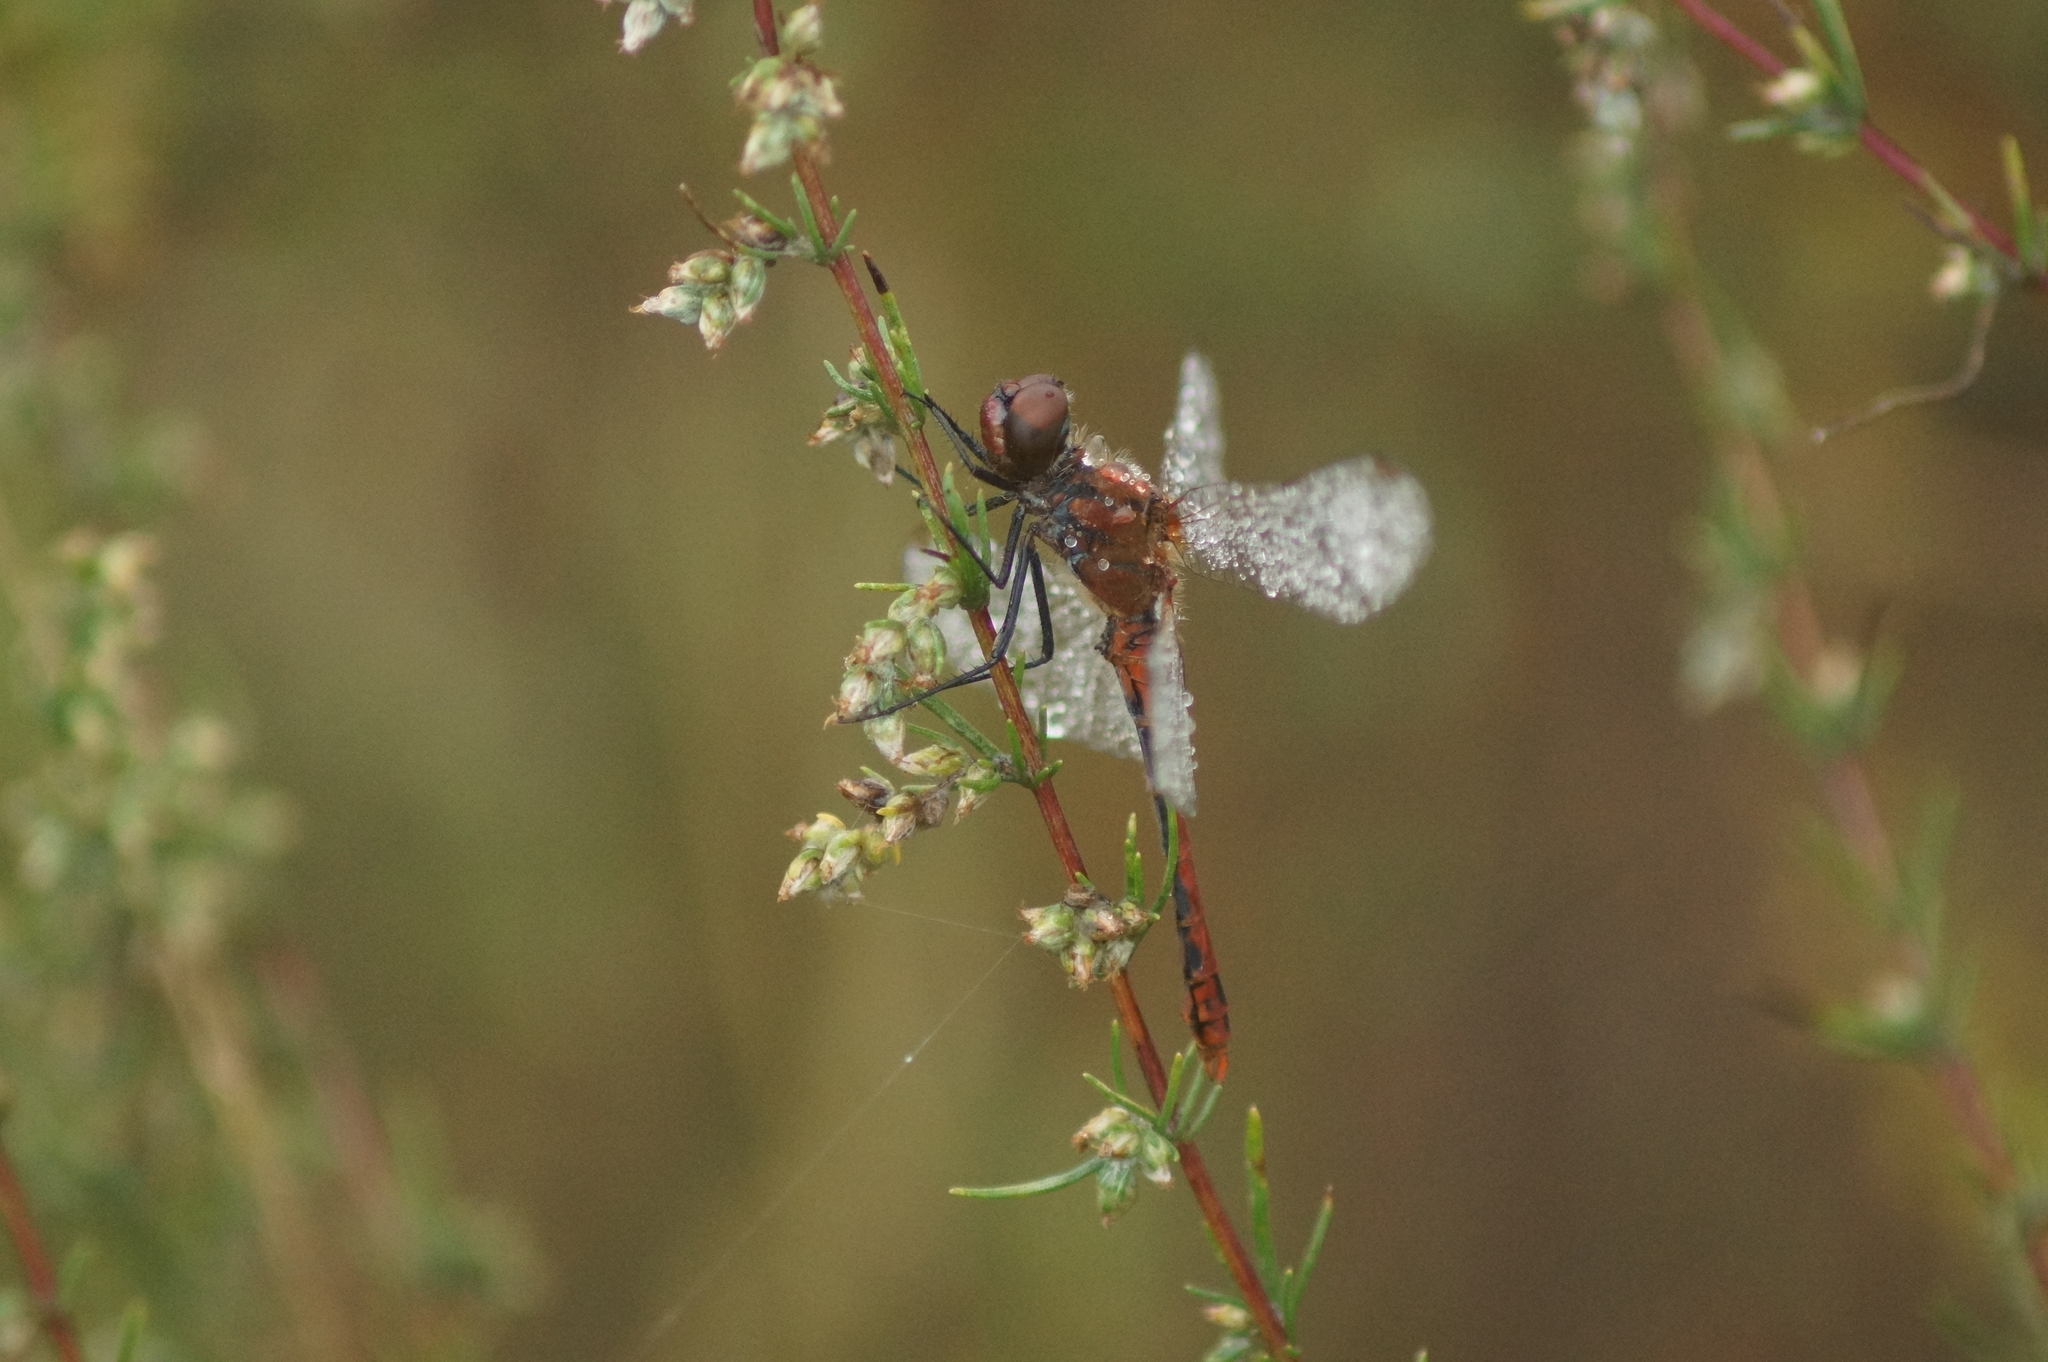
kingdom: Animalia
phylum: Arthropoda
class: Insecta
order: Odonata
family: Libellulidae
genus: Sympetrum
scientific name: Sympetrum sanguineum
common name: Ruddy darter
